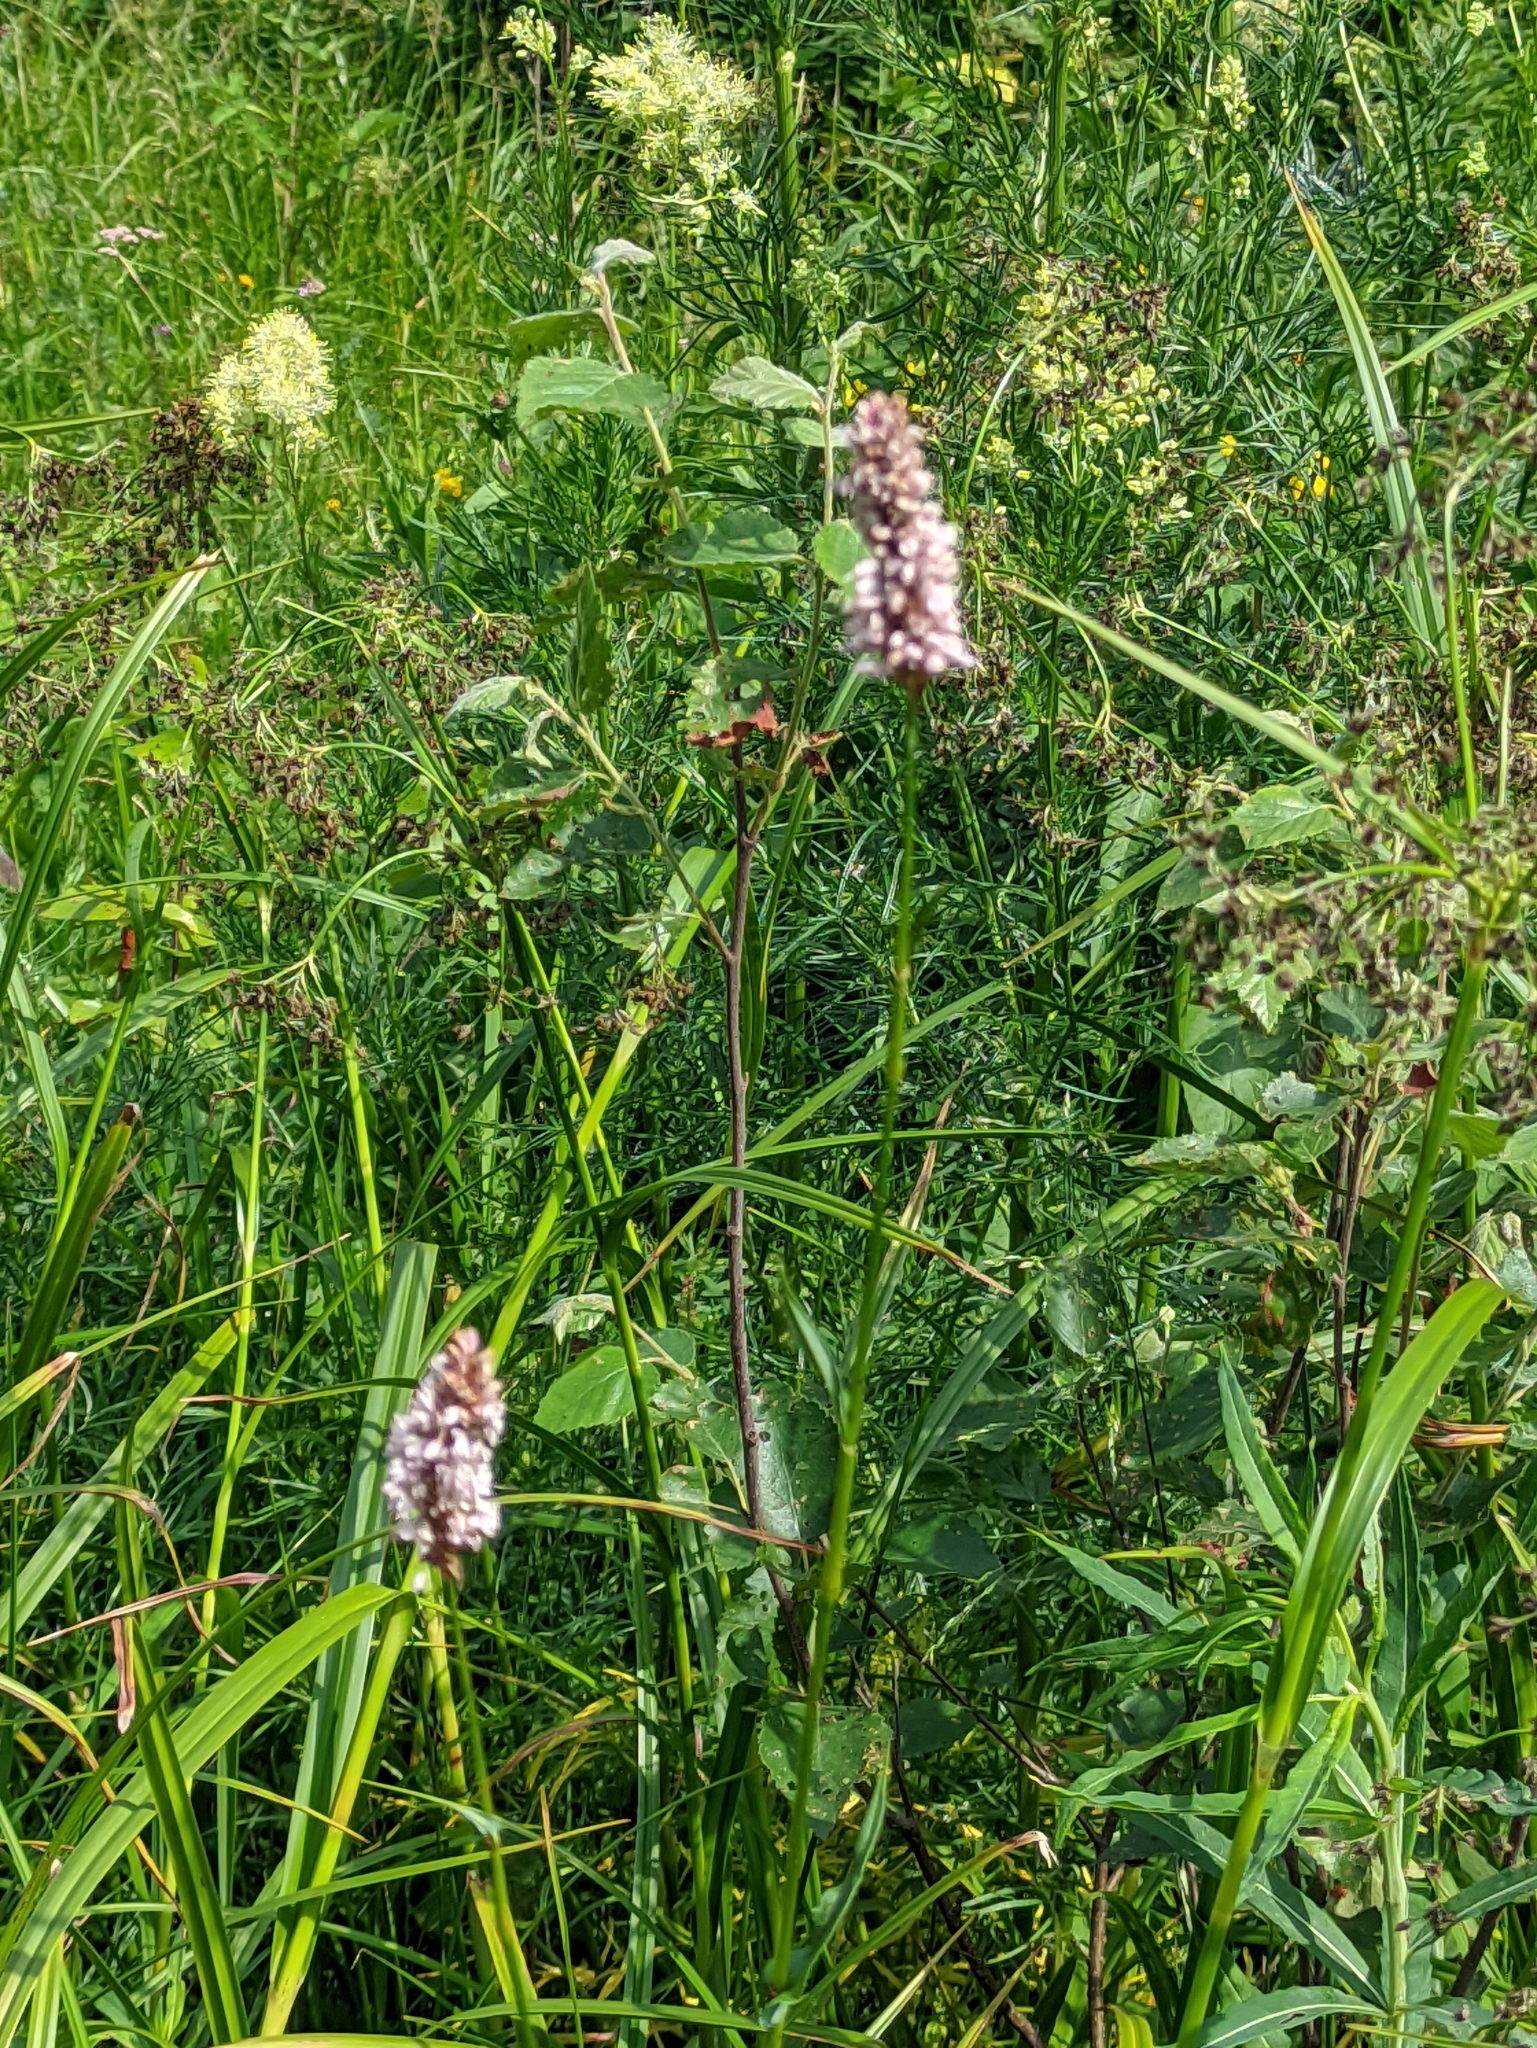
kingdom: Plantae
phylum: Tracheophyta
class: Magnoliopsida
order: Caryophyllales
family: Polygonaceae
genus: Bistorta
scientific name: Bistorta officinalis
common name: Common bistort
